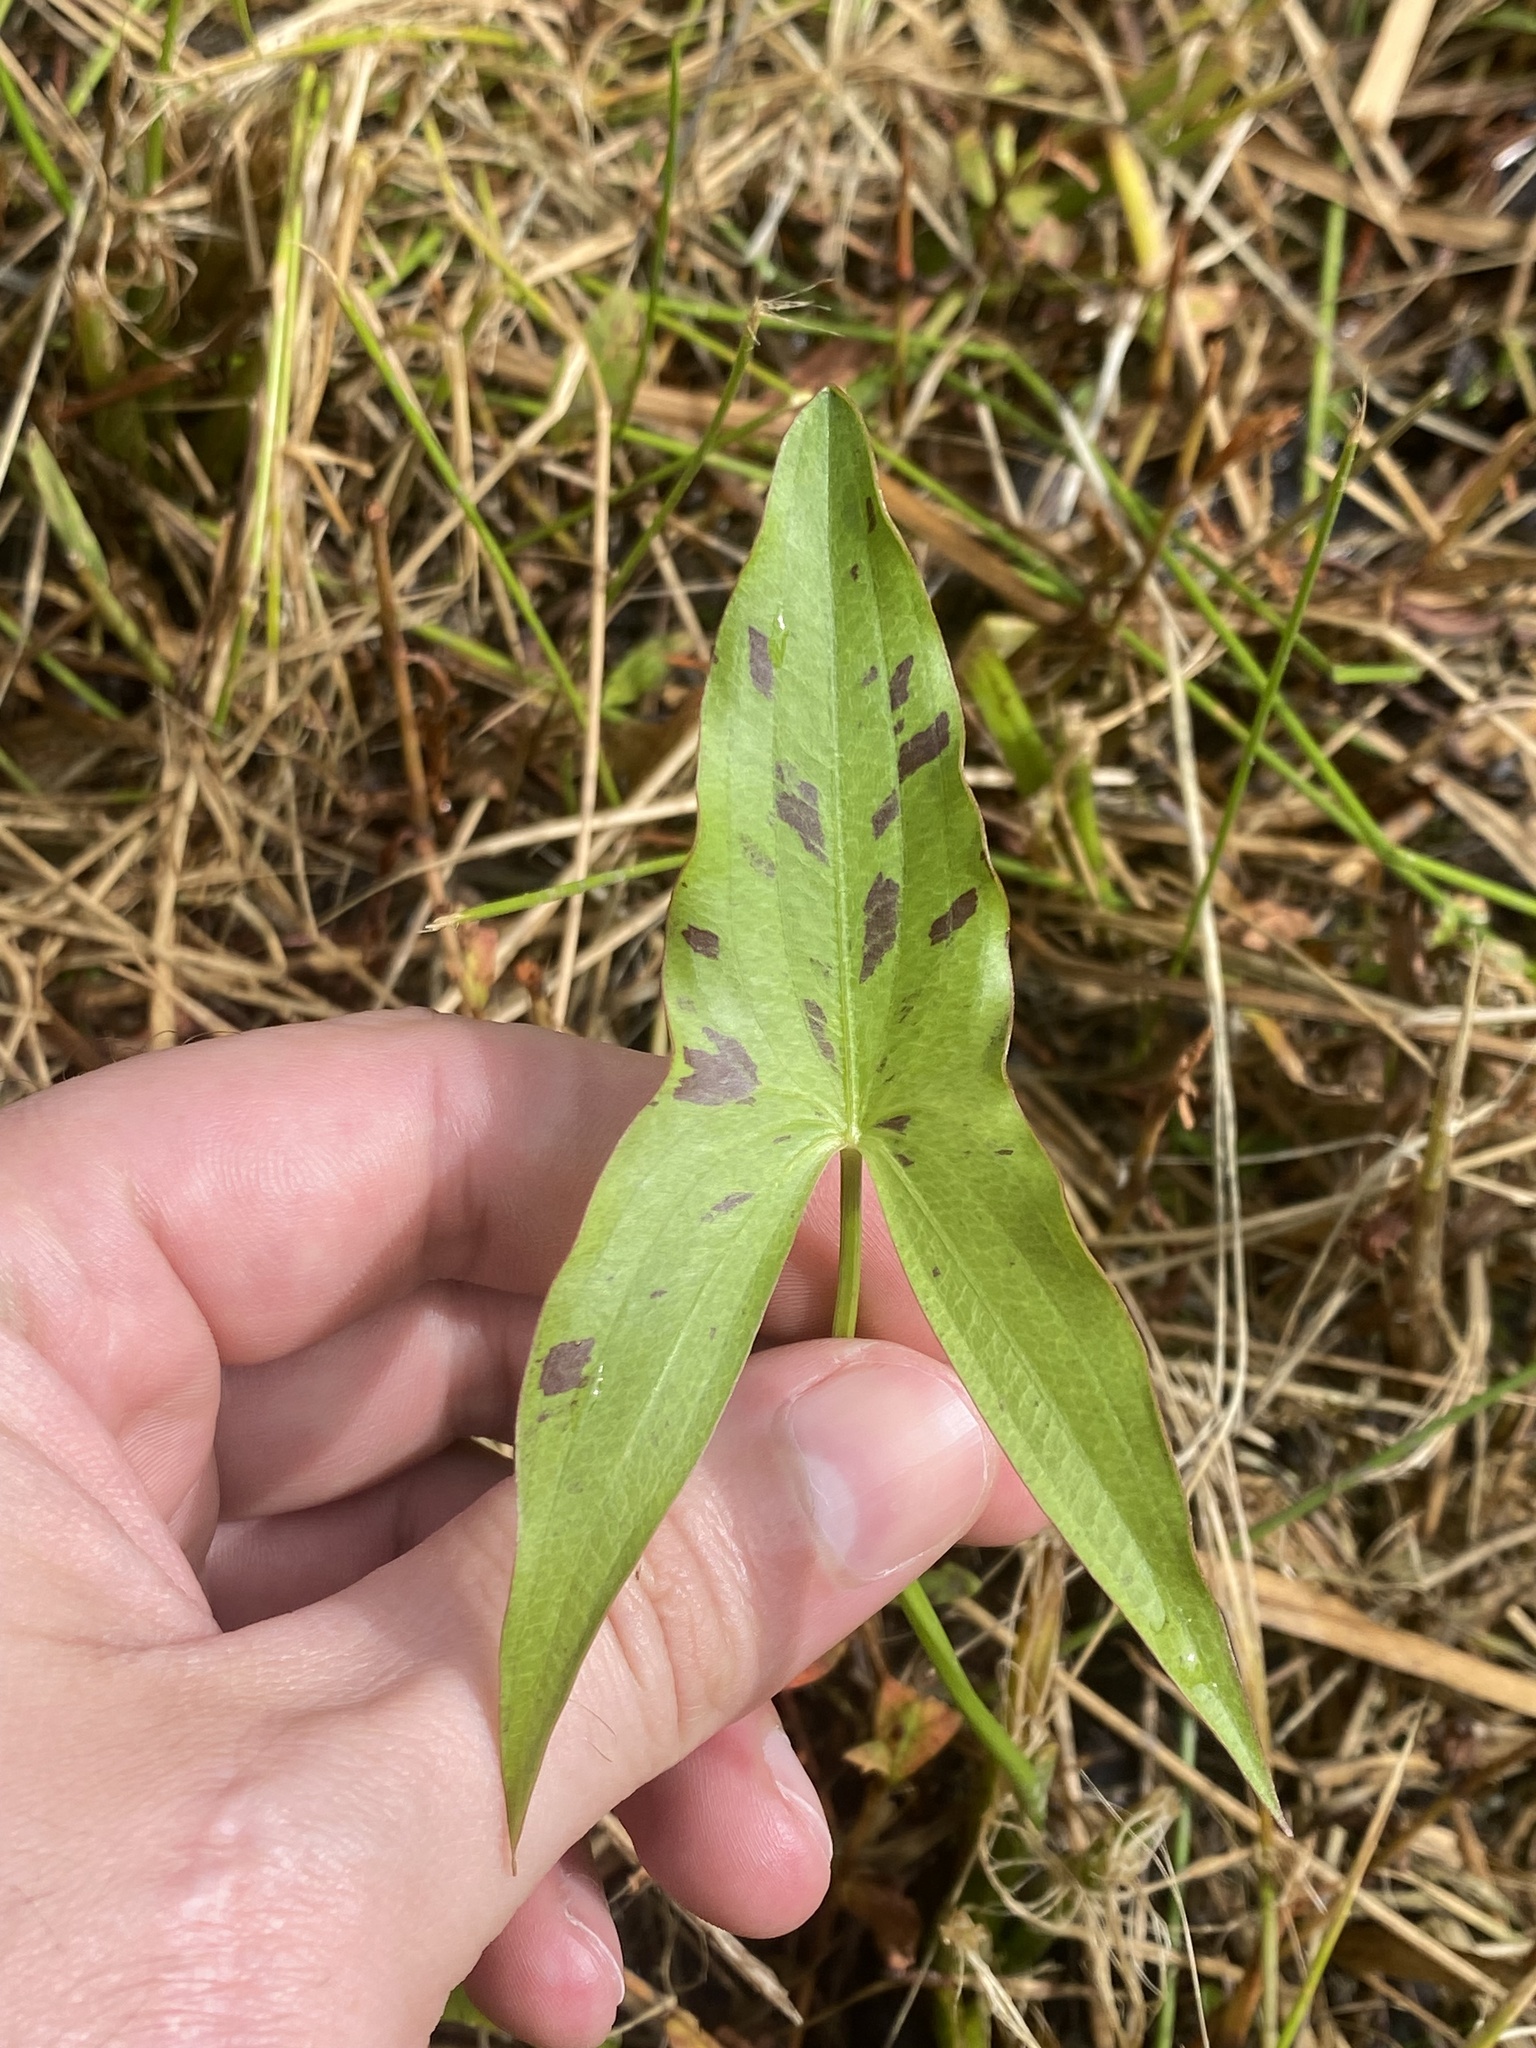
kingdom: Plantae
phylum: Tracheophyta
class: Liliopsida
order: Alismatales
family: Alismataceae
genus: Sagittaria
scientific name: Sagittaria latifolia
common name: Duck-potato
